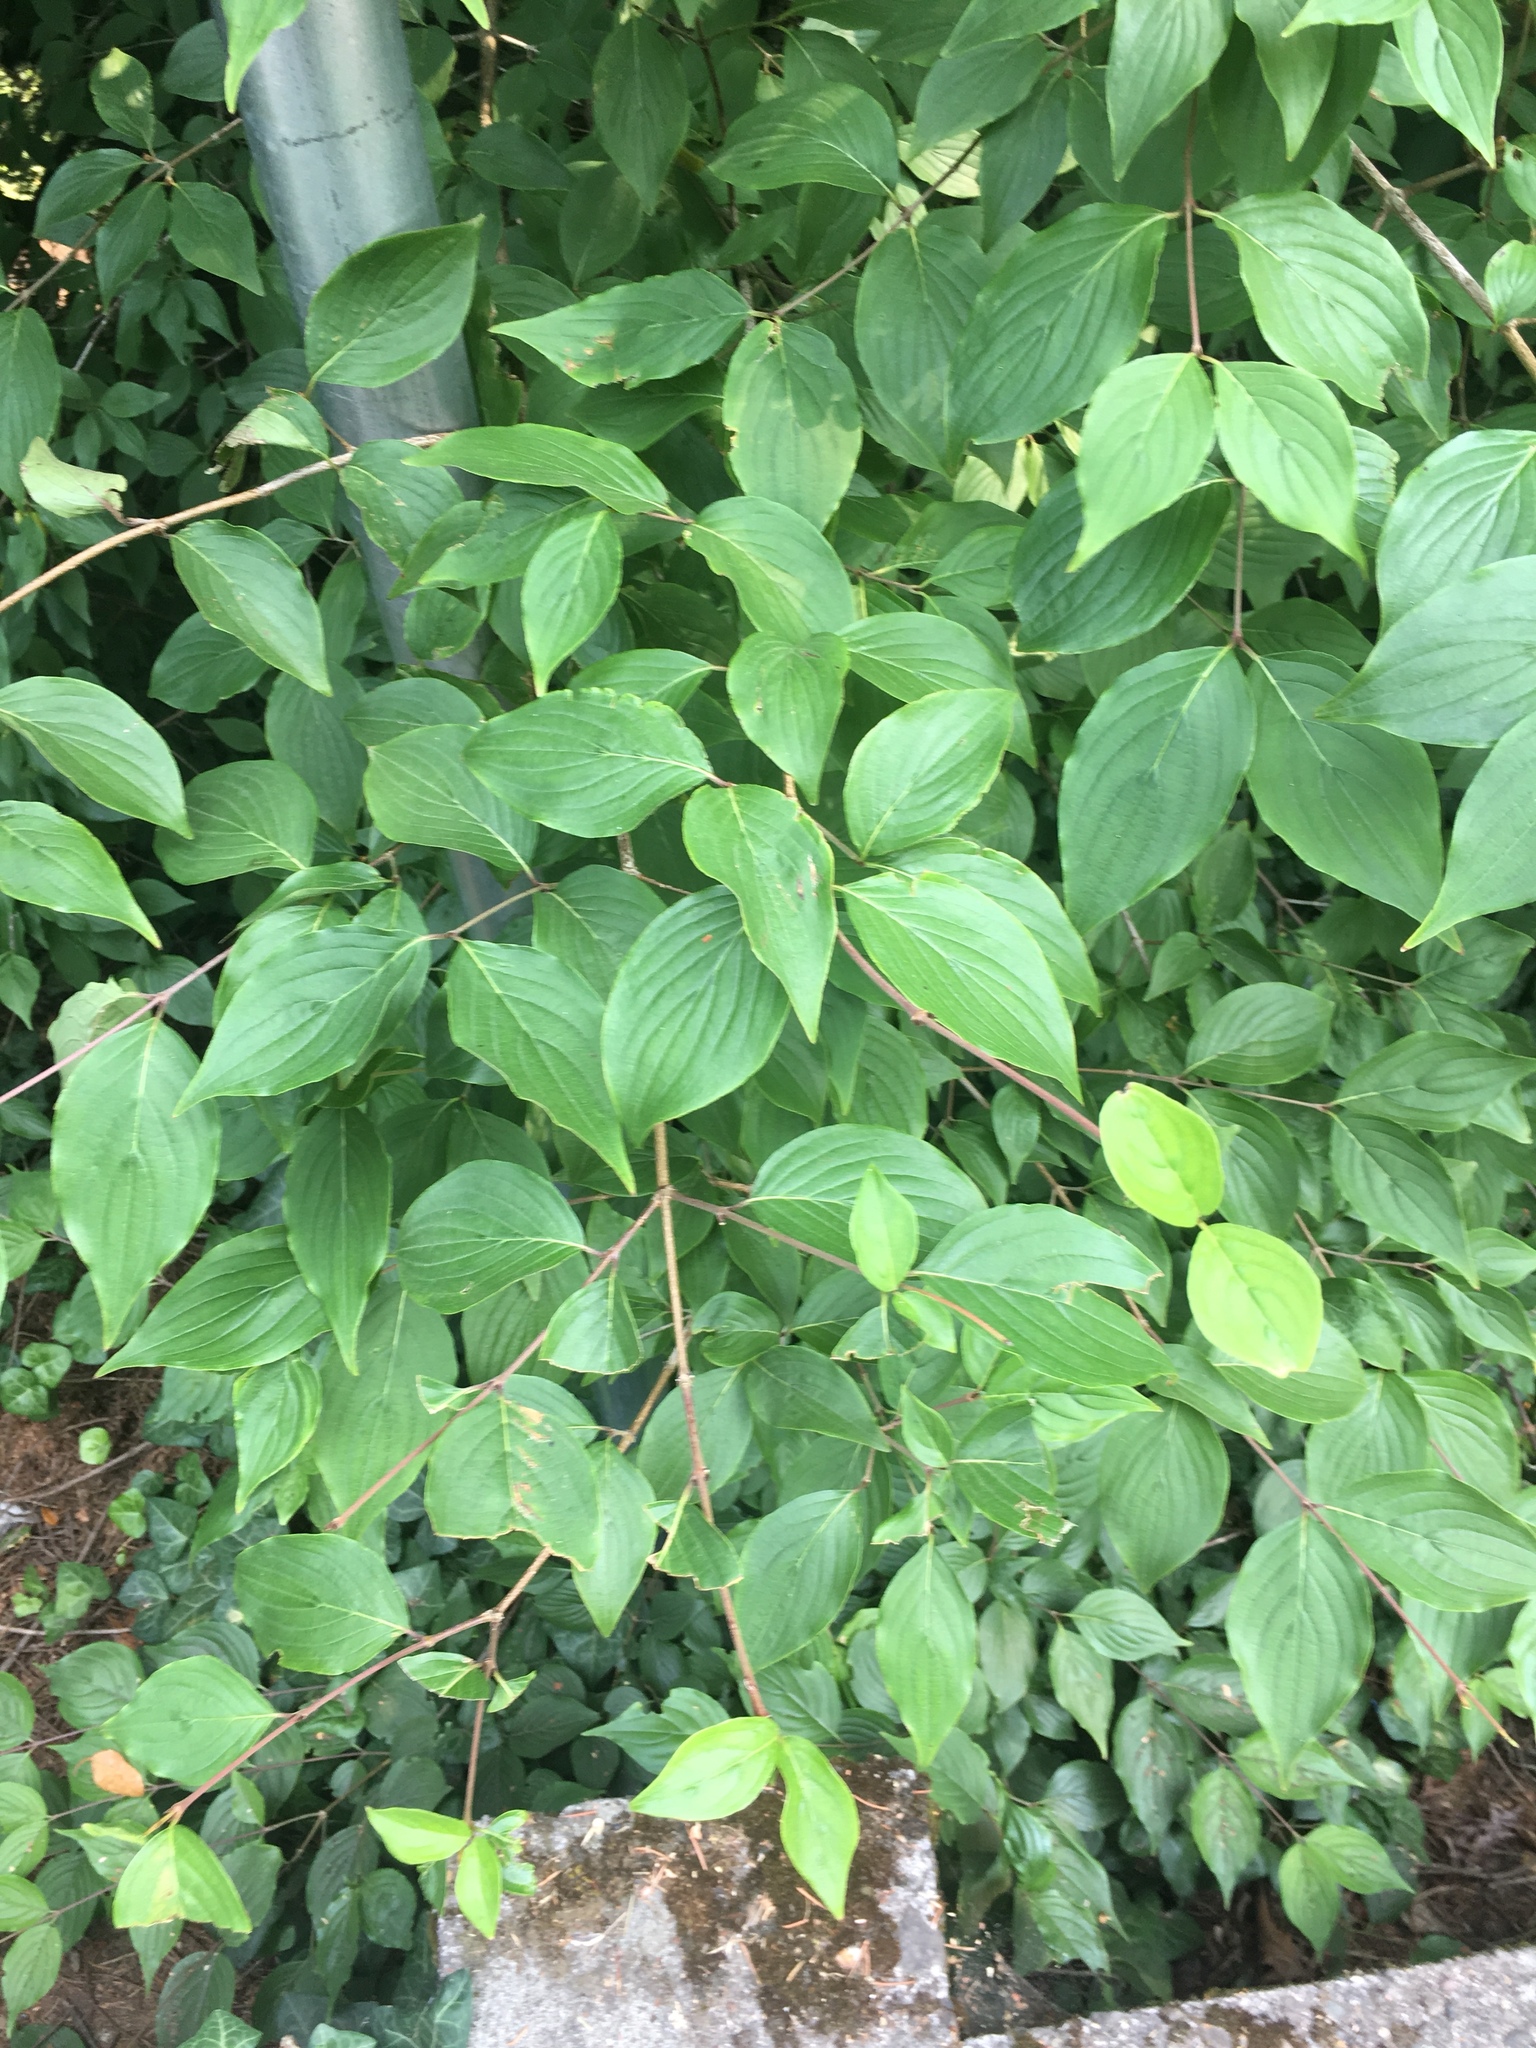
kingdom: Plantae
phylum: Tracheophyta
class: Magnoliopsida
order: Cornales
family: Cornaceae
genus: Cornus
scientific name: Cornus sericea
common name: Red-osier dogwood
